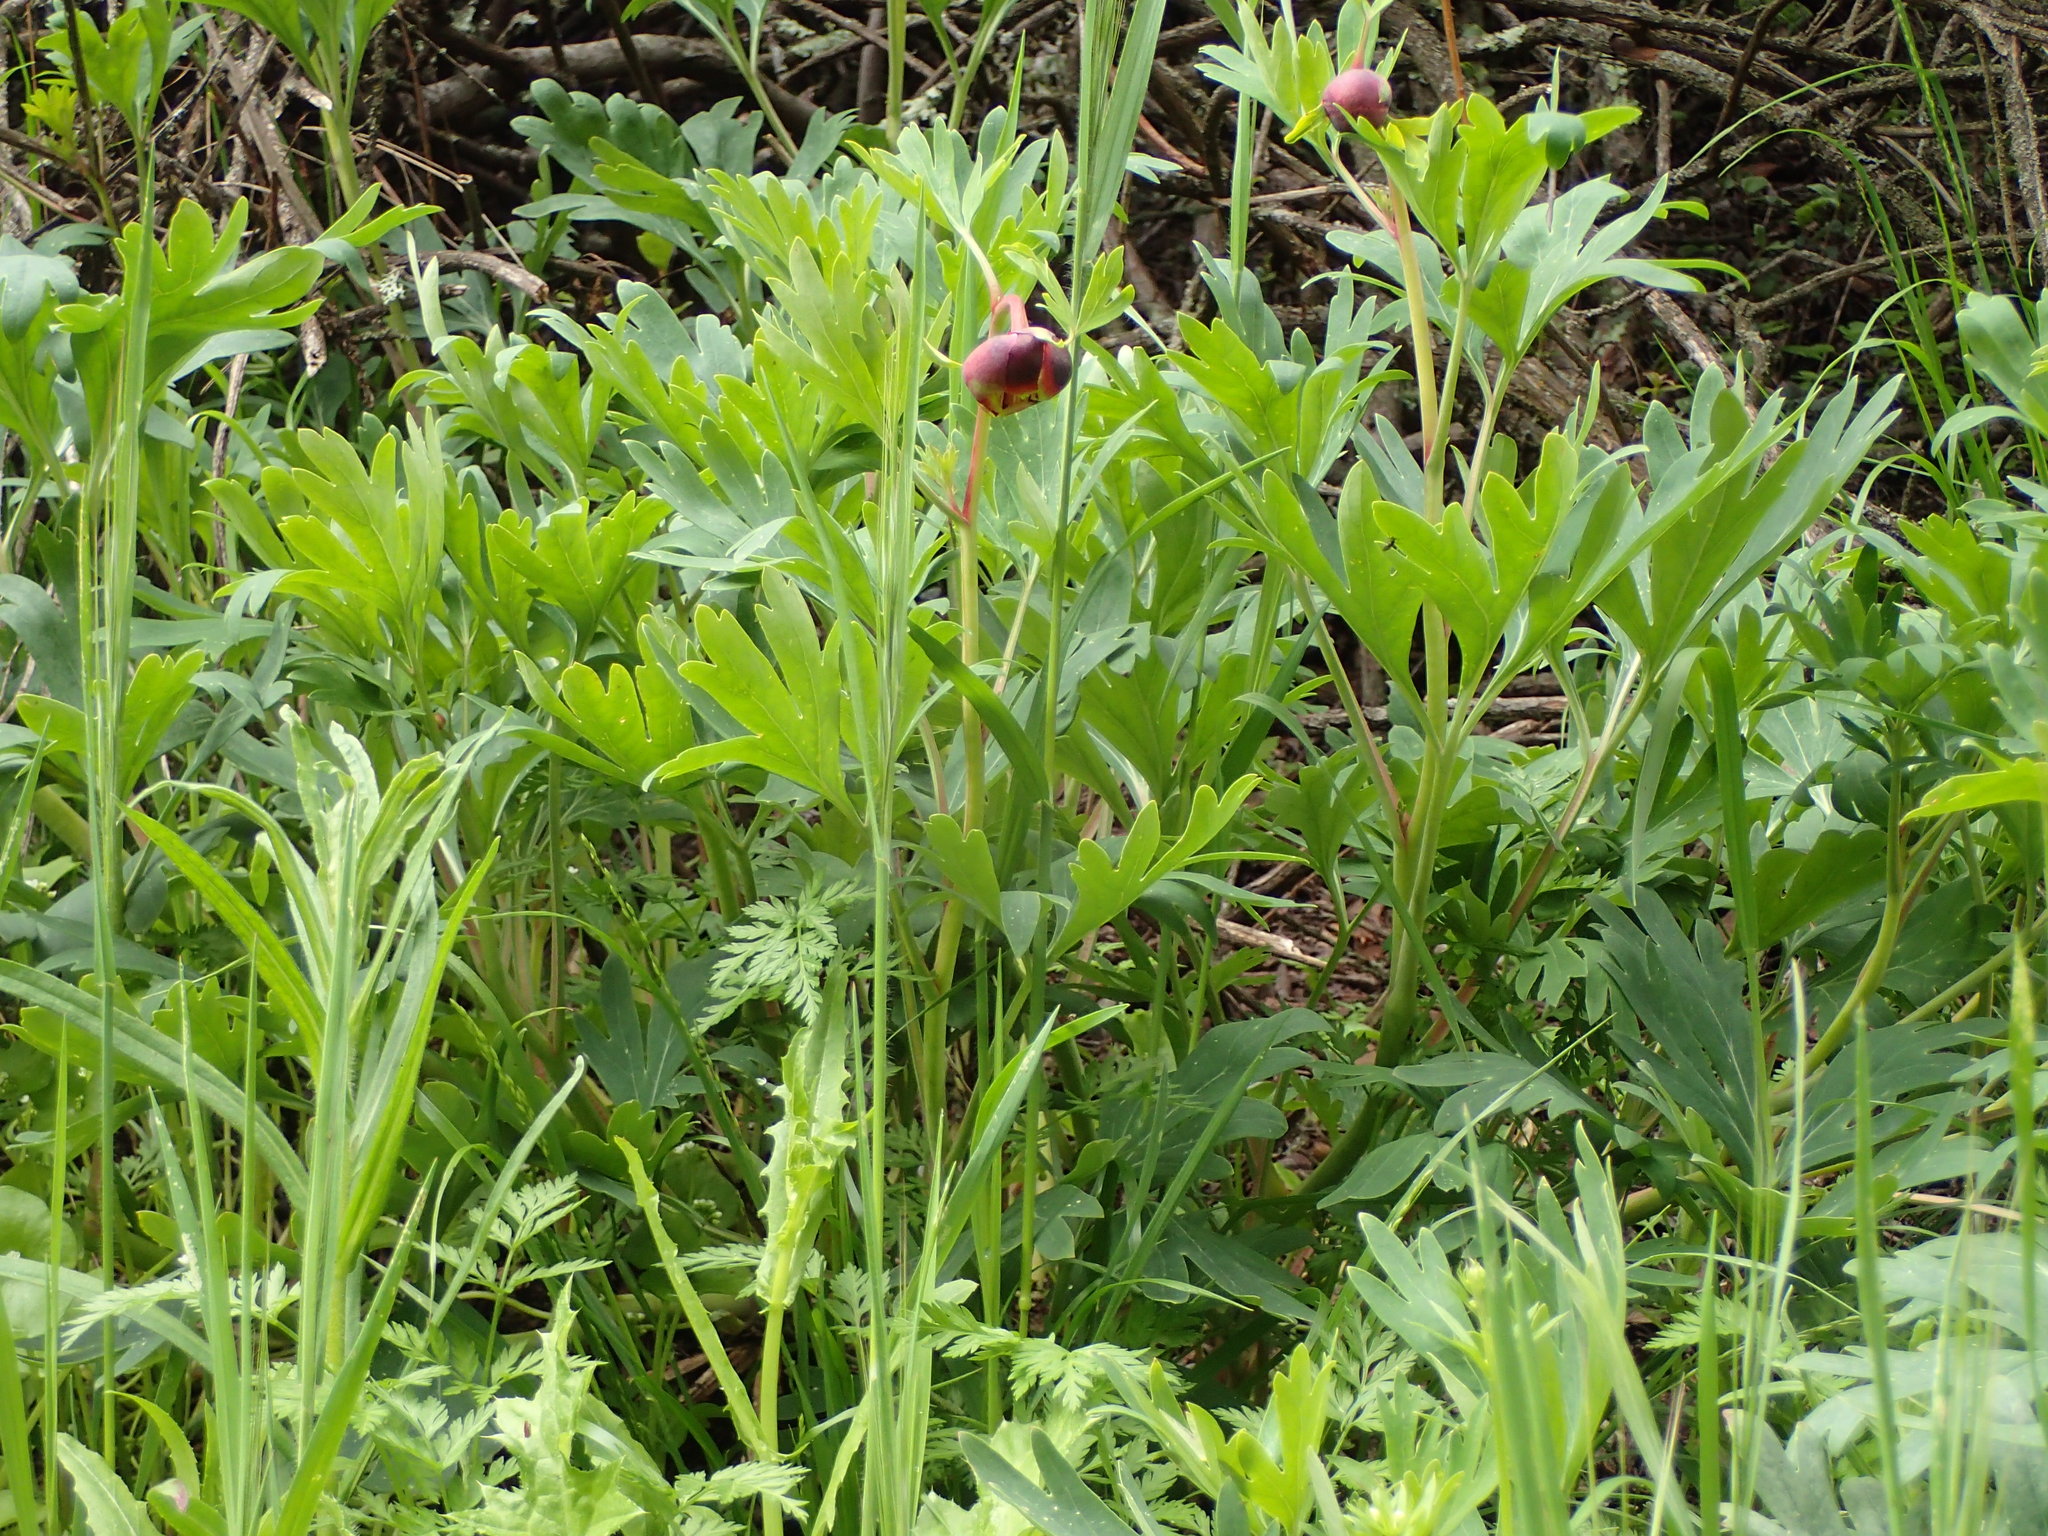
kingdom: Plantae
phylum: Tracheophyta
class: Magnoliopsida
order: Saxifragales
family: Paeoniaceae
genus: Paeonia
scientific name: Paeonia californica
